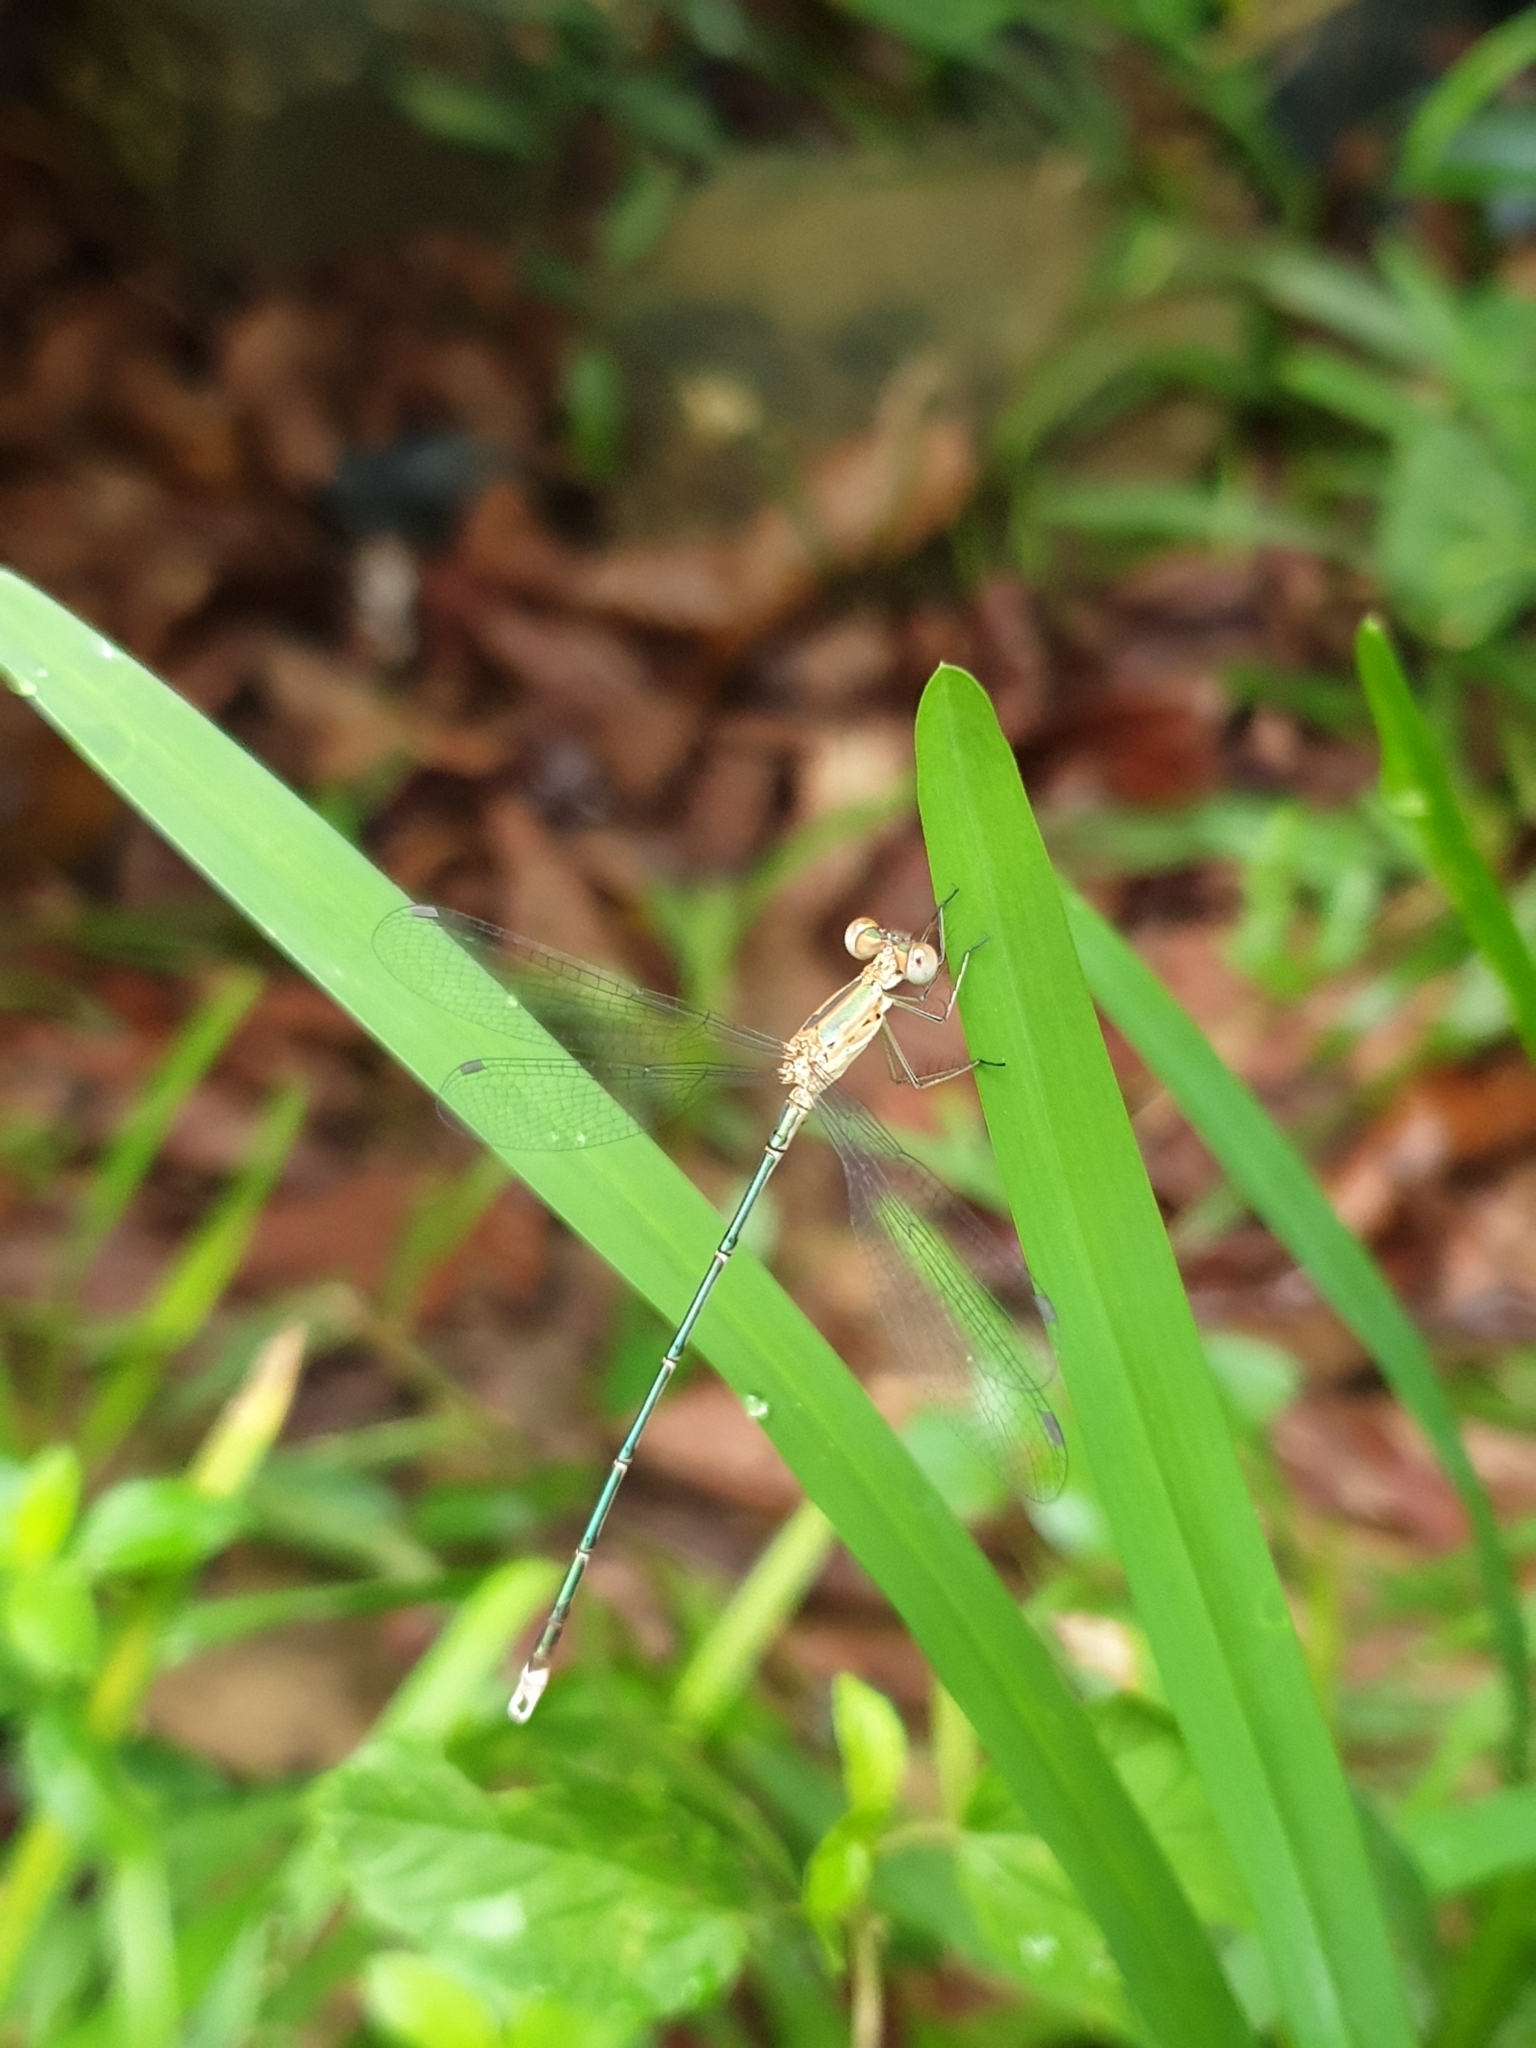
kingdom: Animalia
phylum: Arthropoda
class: Insecta
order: Odonata
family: Lestidae
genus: Lestes
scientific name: Lestes elatus
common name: Emerald spreadwing
